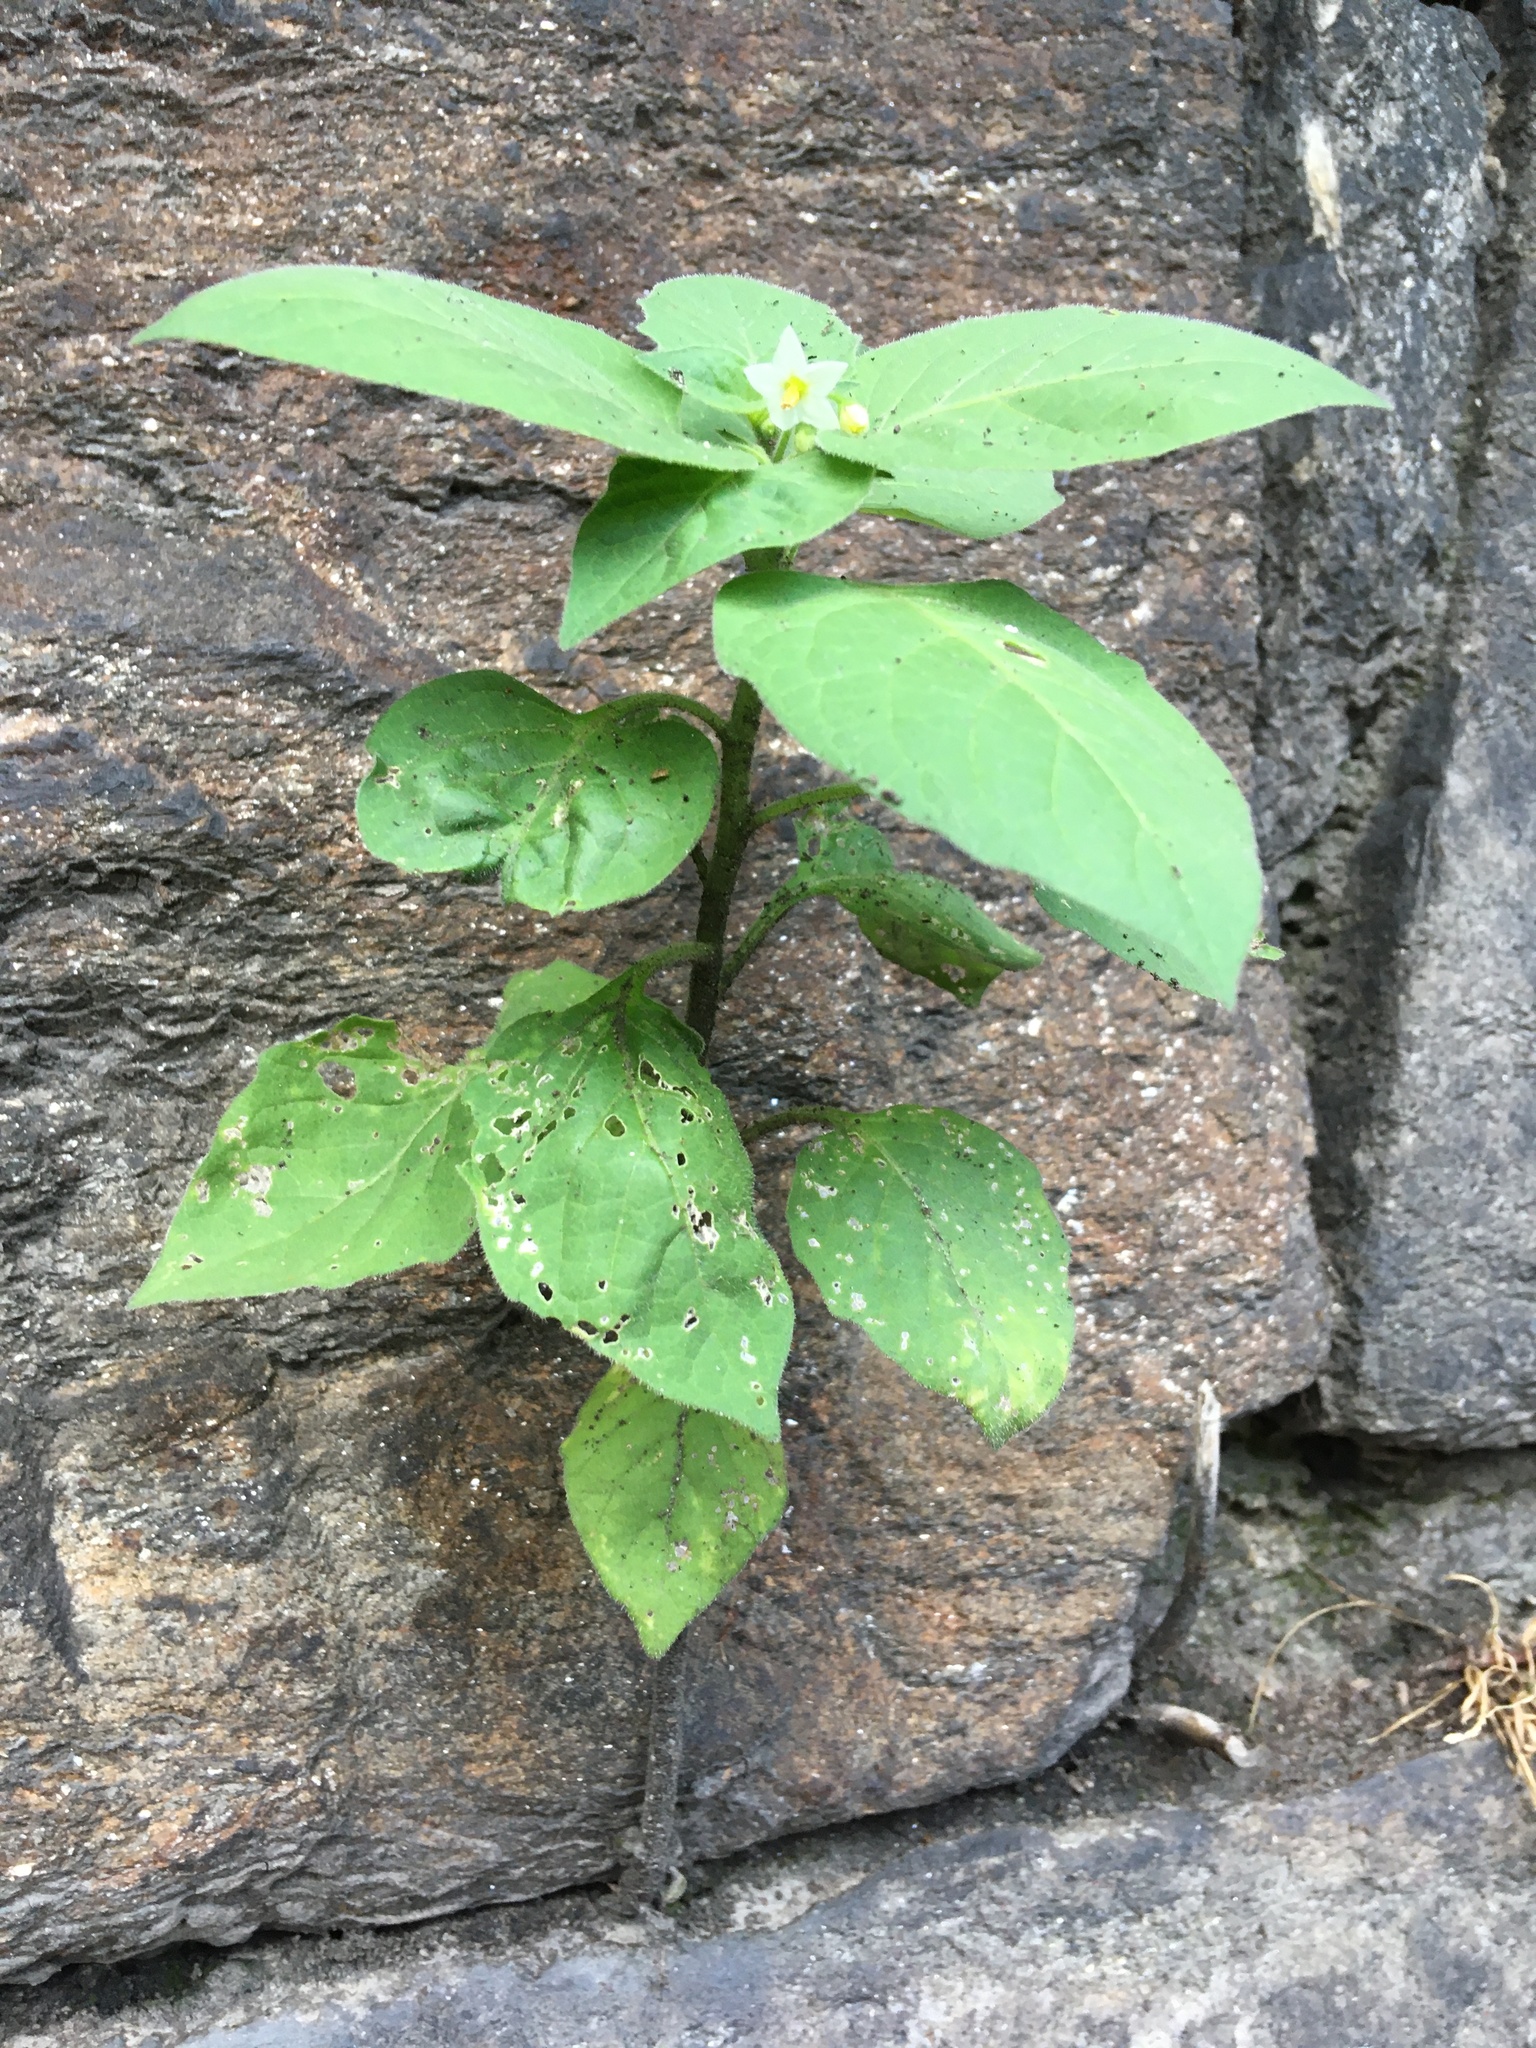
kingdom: Plantae
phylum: Tracheophyta
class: Magnoliopsida
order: Solanales
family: Solanaceae
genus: Solanum
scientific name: Solanum nigrum
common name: Black nightshade
